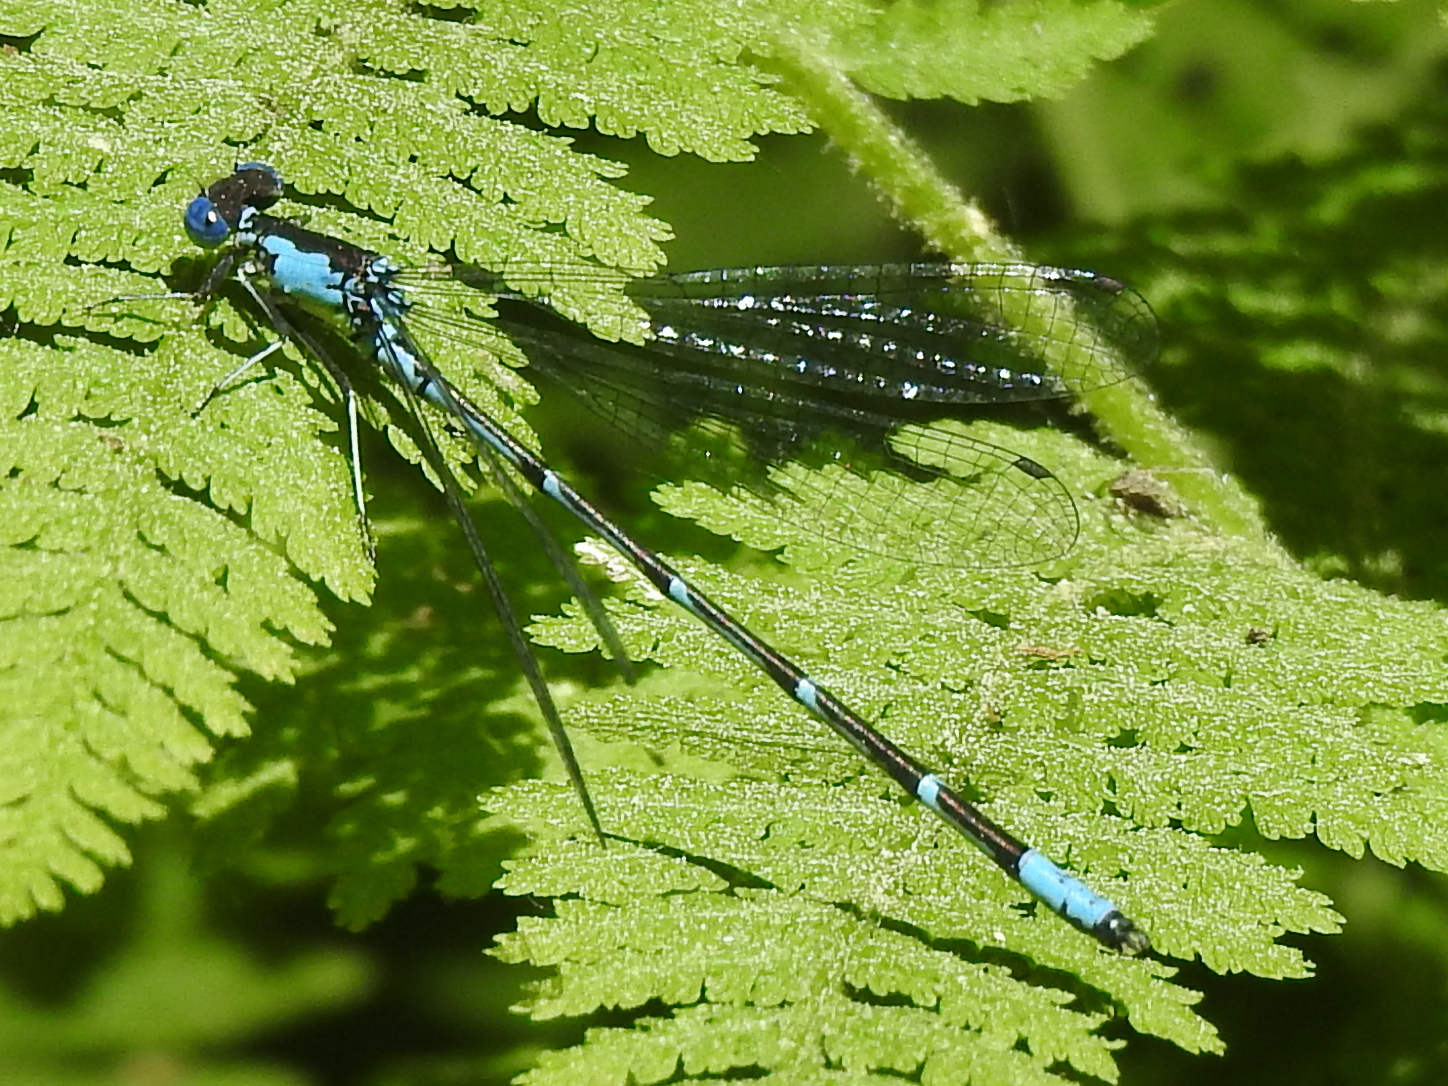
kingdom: Animalia
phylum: Arthropoda
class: Insecta
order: Odonata
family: Coenagrionidae
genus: Chromagrion
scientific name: Chromagrion conditum
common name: Aurora damsel
